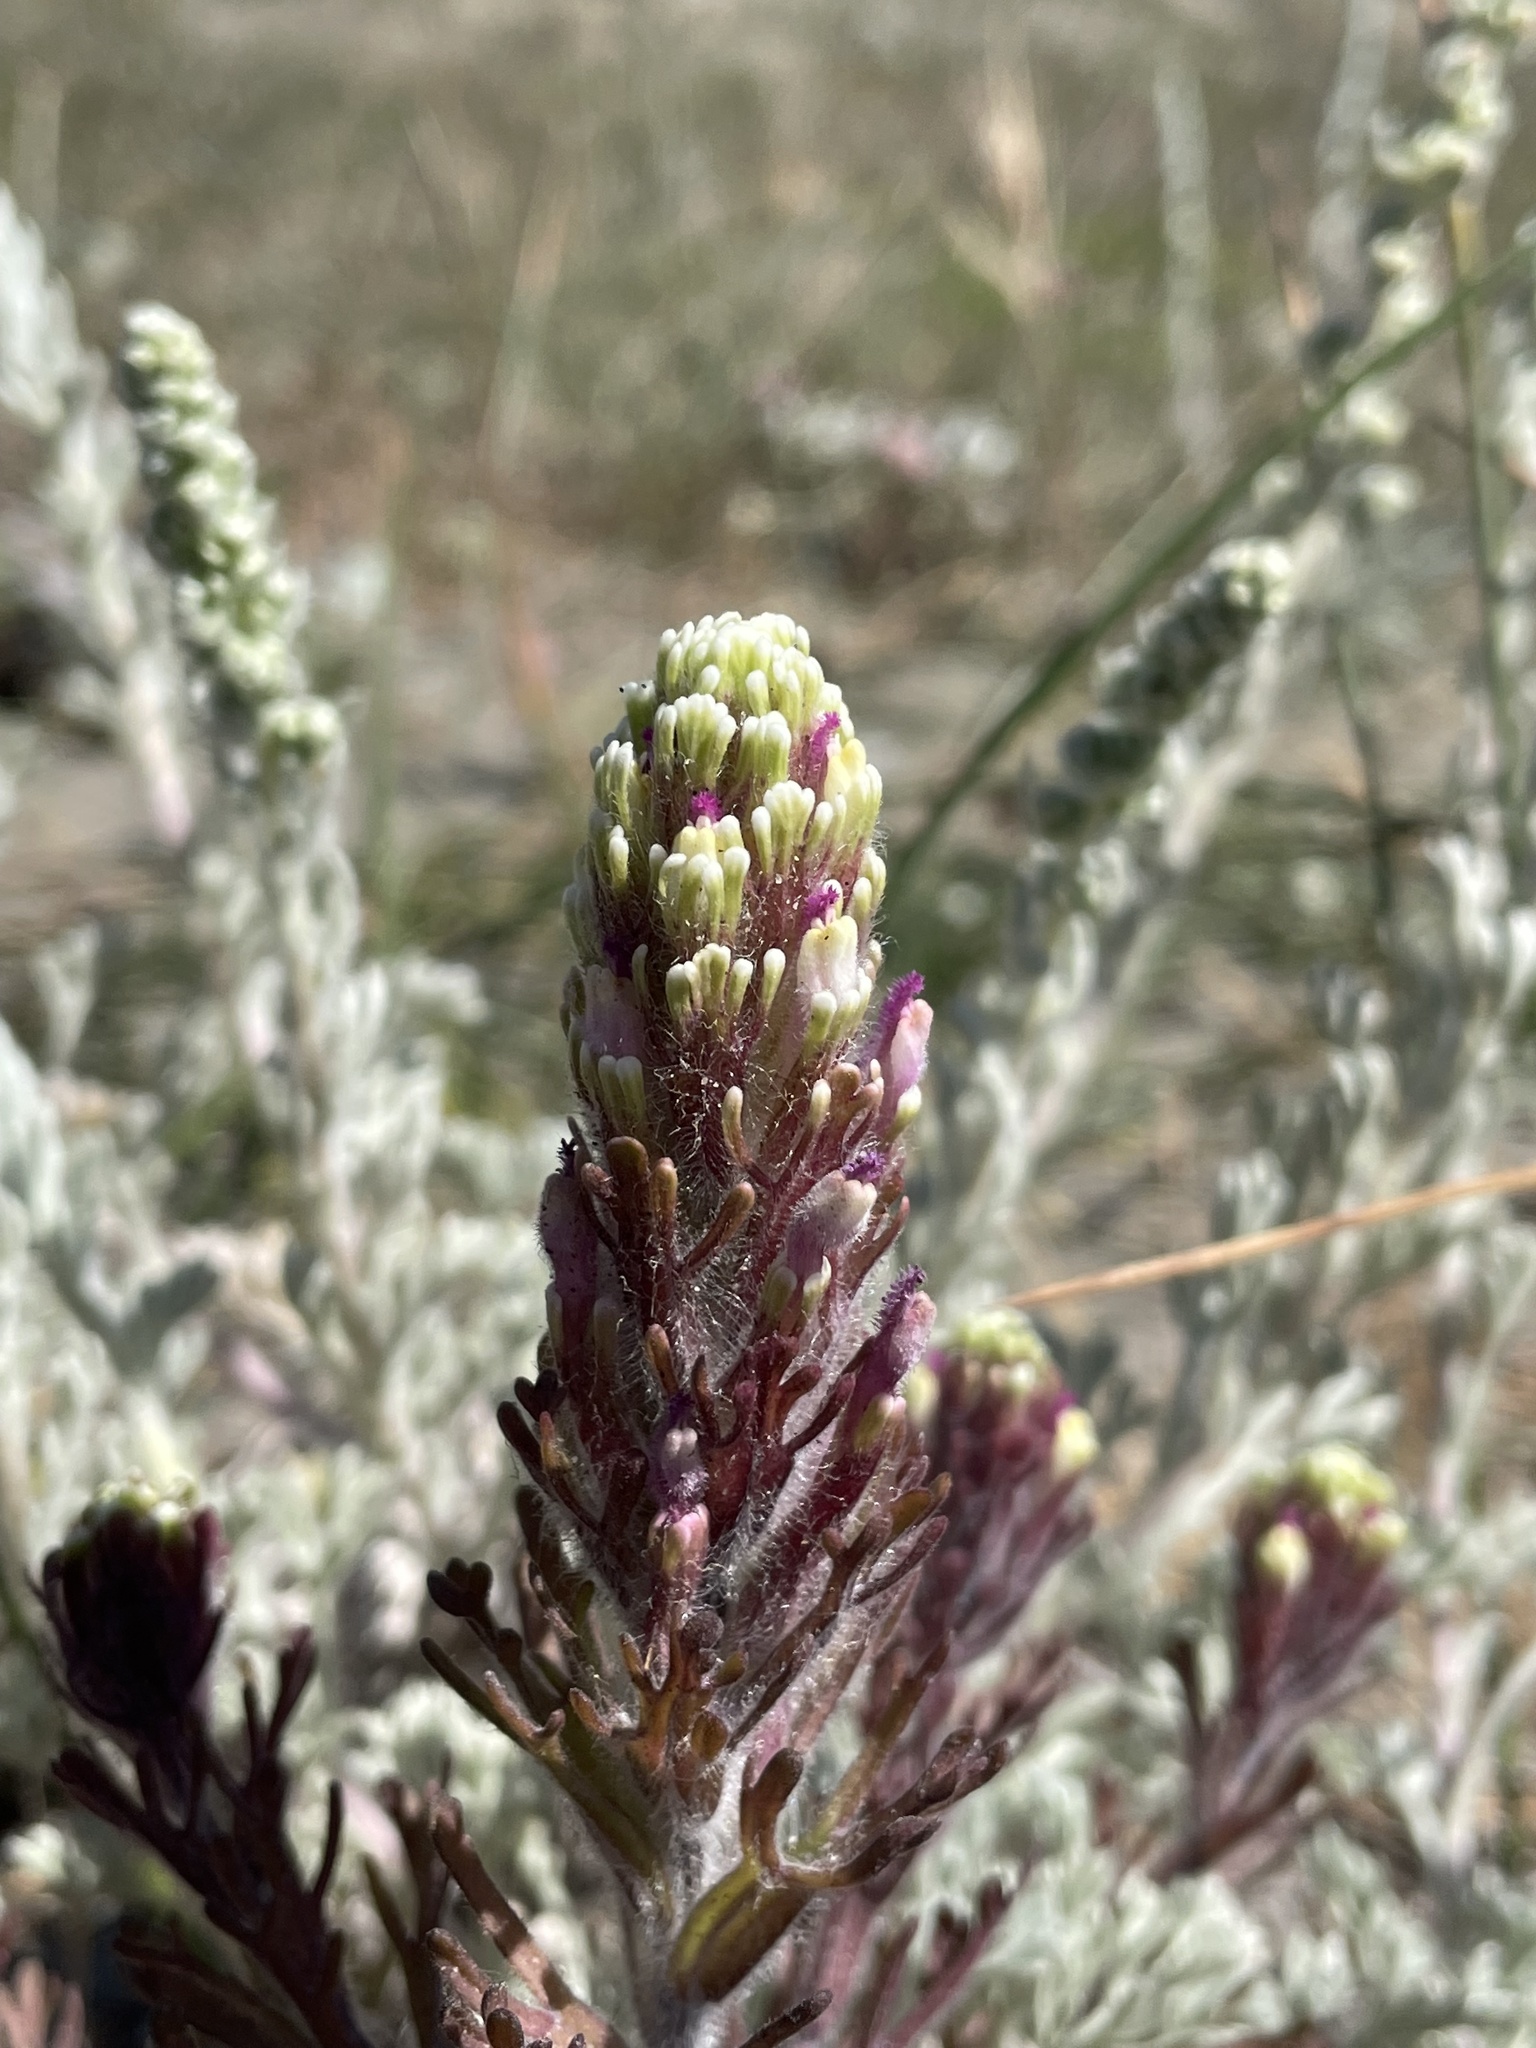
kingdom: Plantae
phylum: Tracheophyta
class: Magnoliopsida
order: Lamiales
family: Orobanchaceae
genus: Castilleja
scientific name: Castilleja exserta
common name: Purple owl-clover
